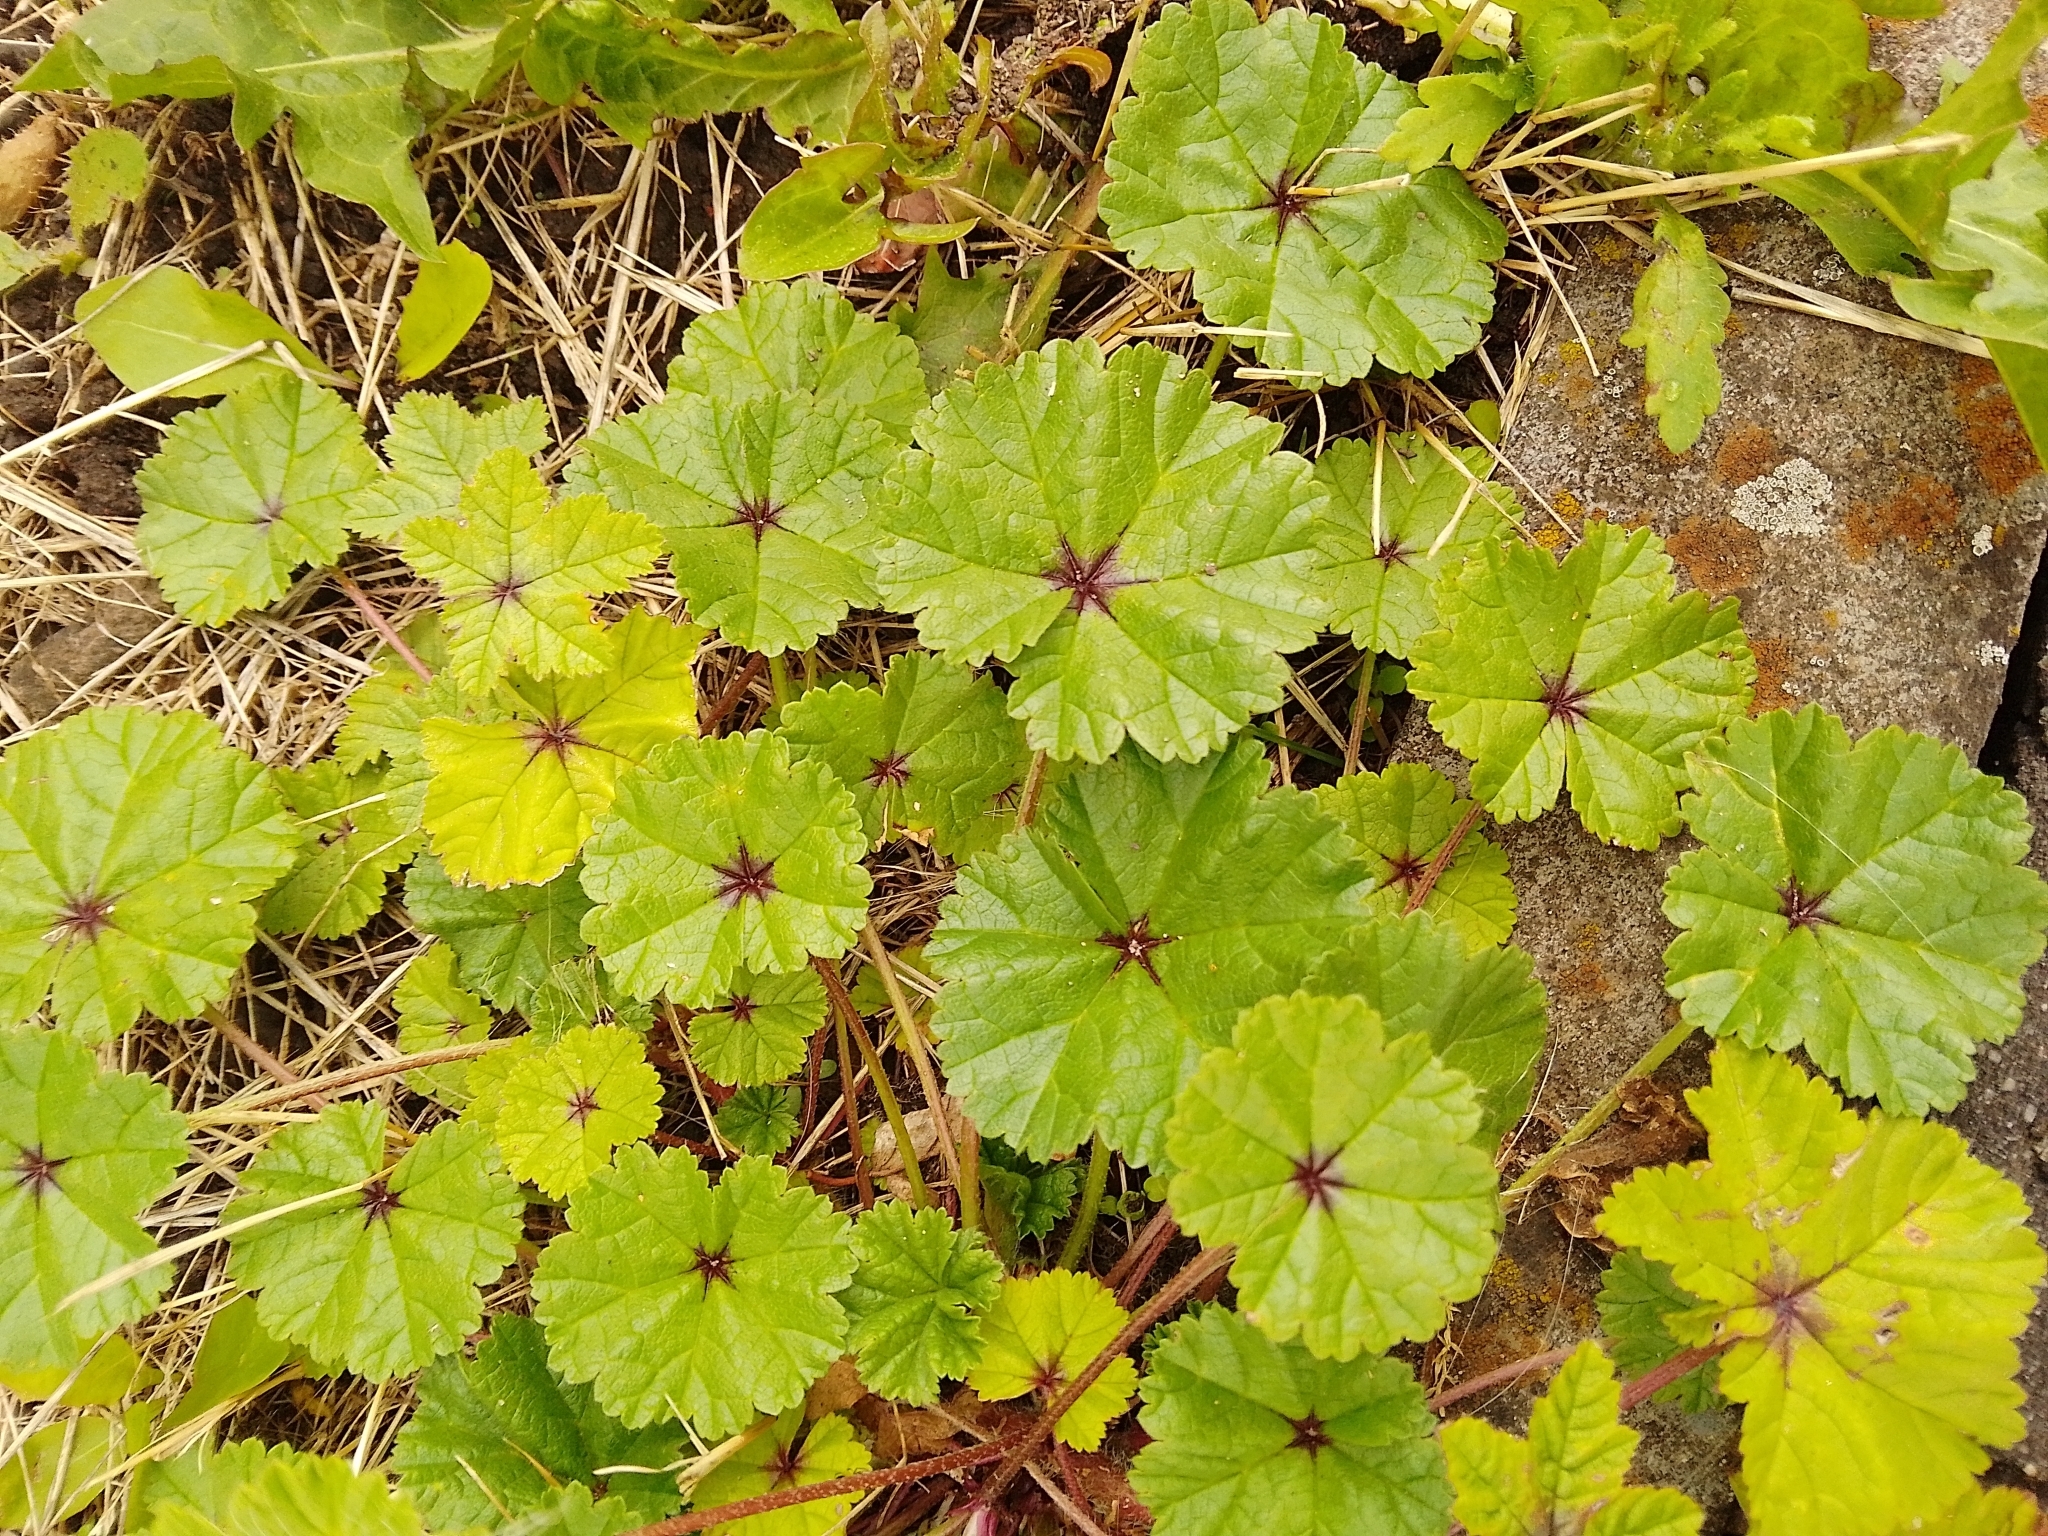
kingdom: Plantae
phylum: Tracheophyta
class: Magnoliopsida
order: Malvales
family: Malvaceae
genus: Malva
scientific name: Malva sylvestris
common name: Common mallow
